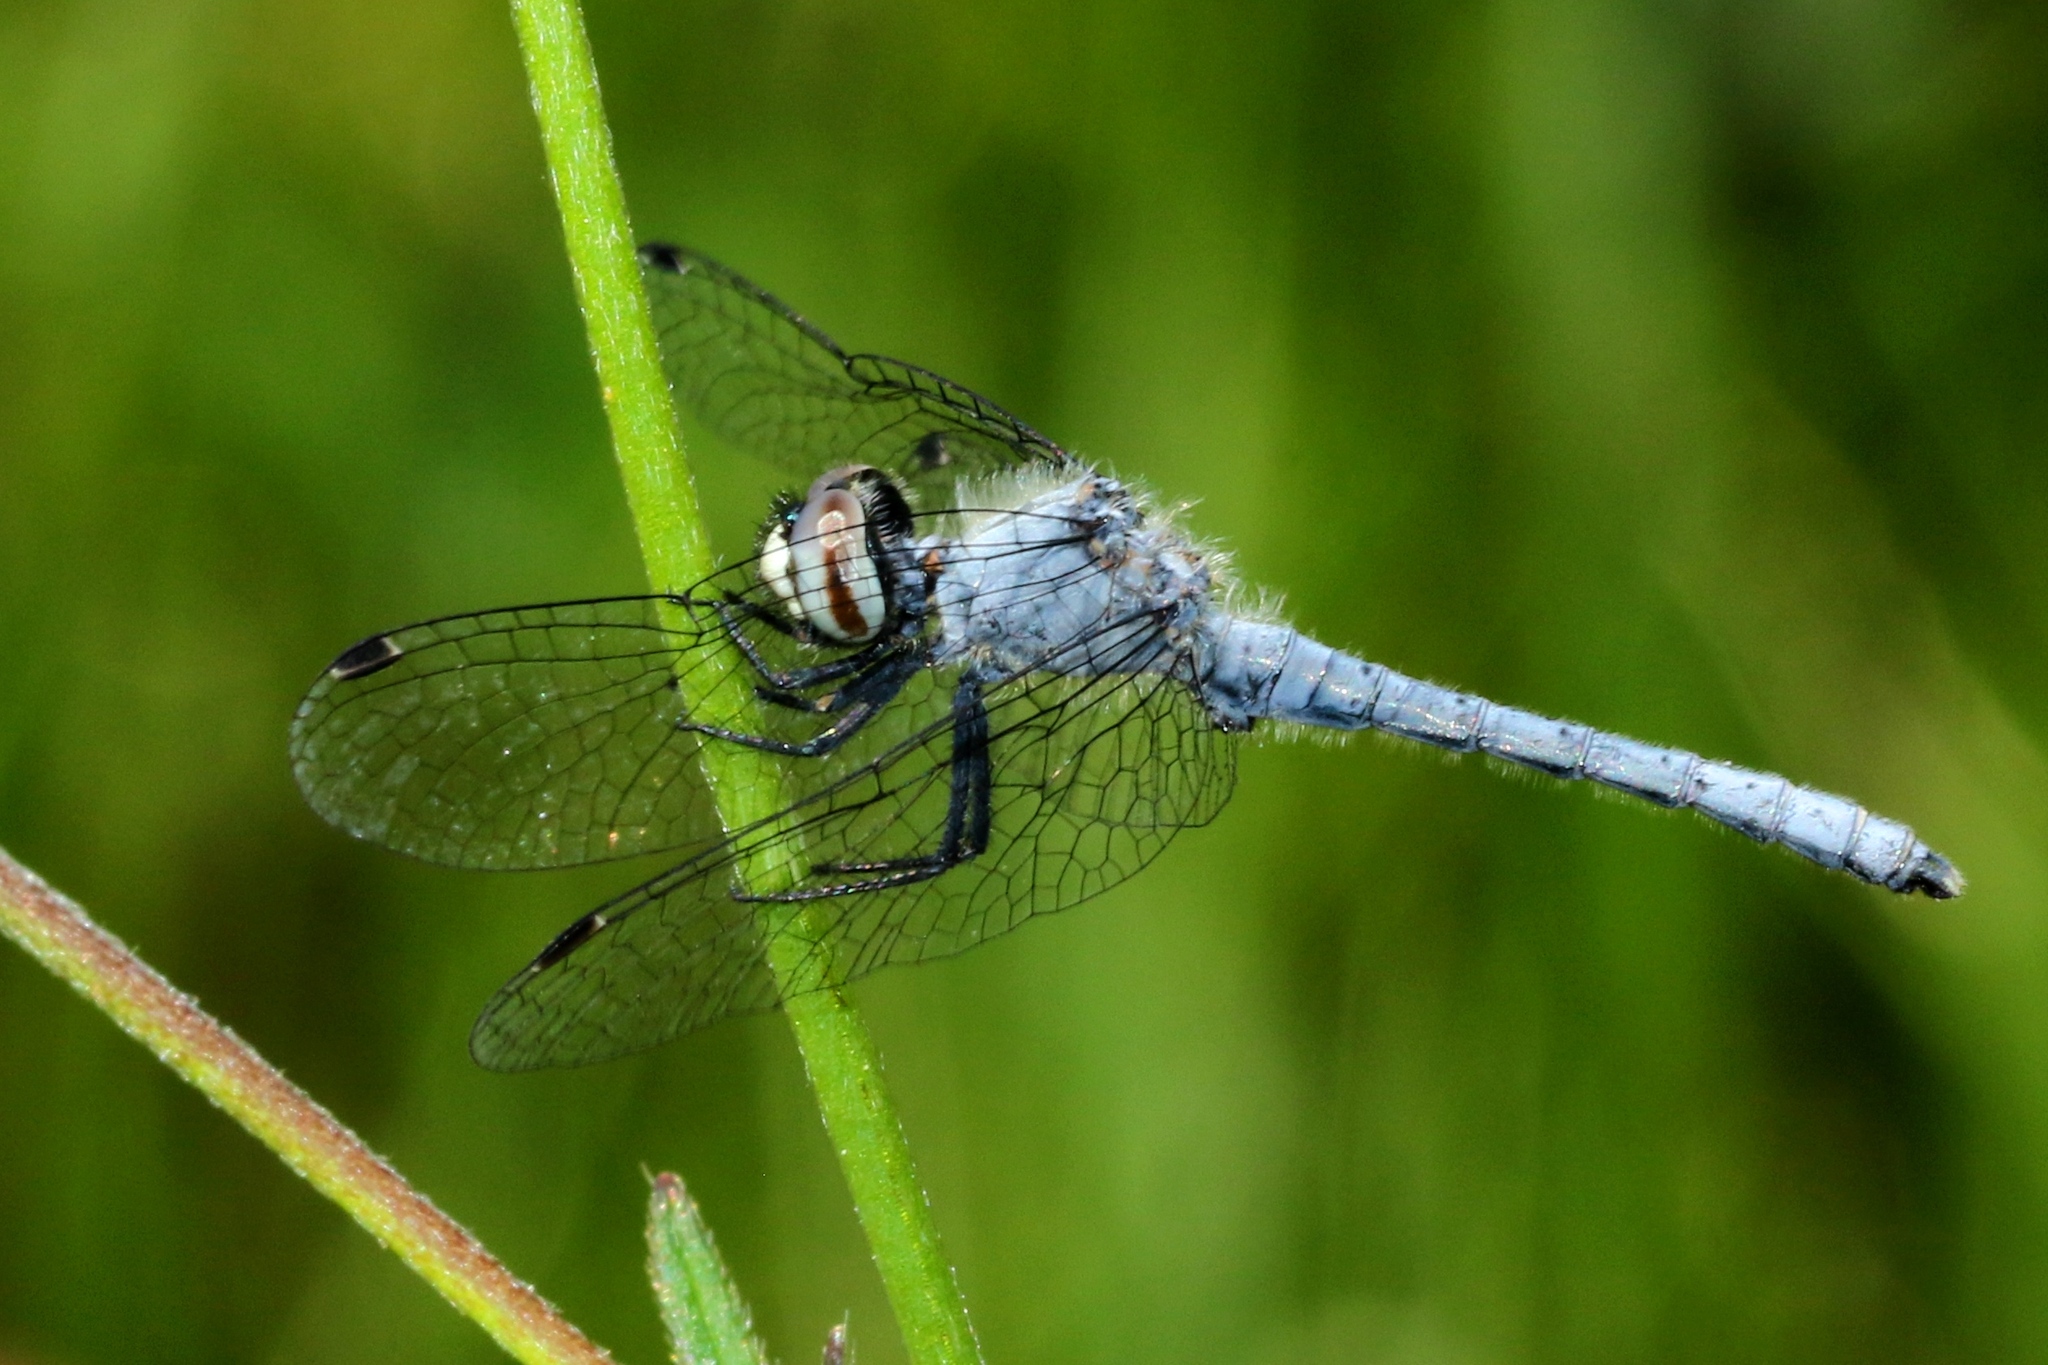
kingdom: Animalia
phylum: Arthropoda
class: Insecta
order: Odonata
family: Libellulidae
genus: Nannothemis
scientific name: Nannothemis bella
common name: Elfin skimmer
